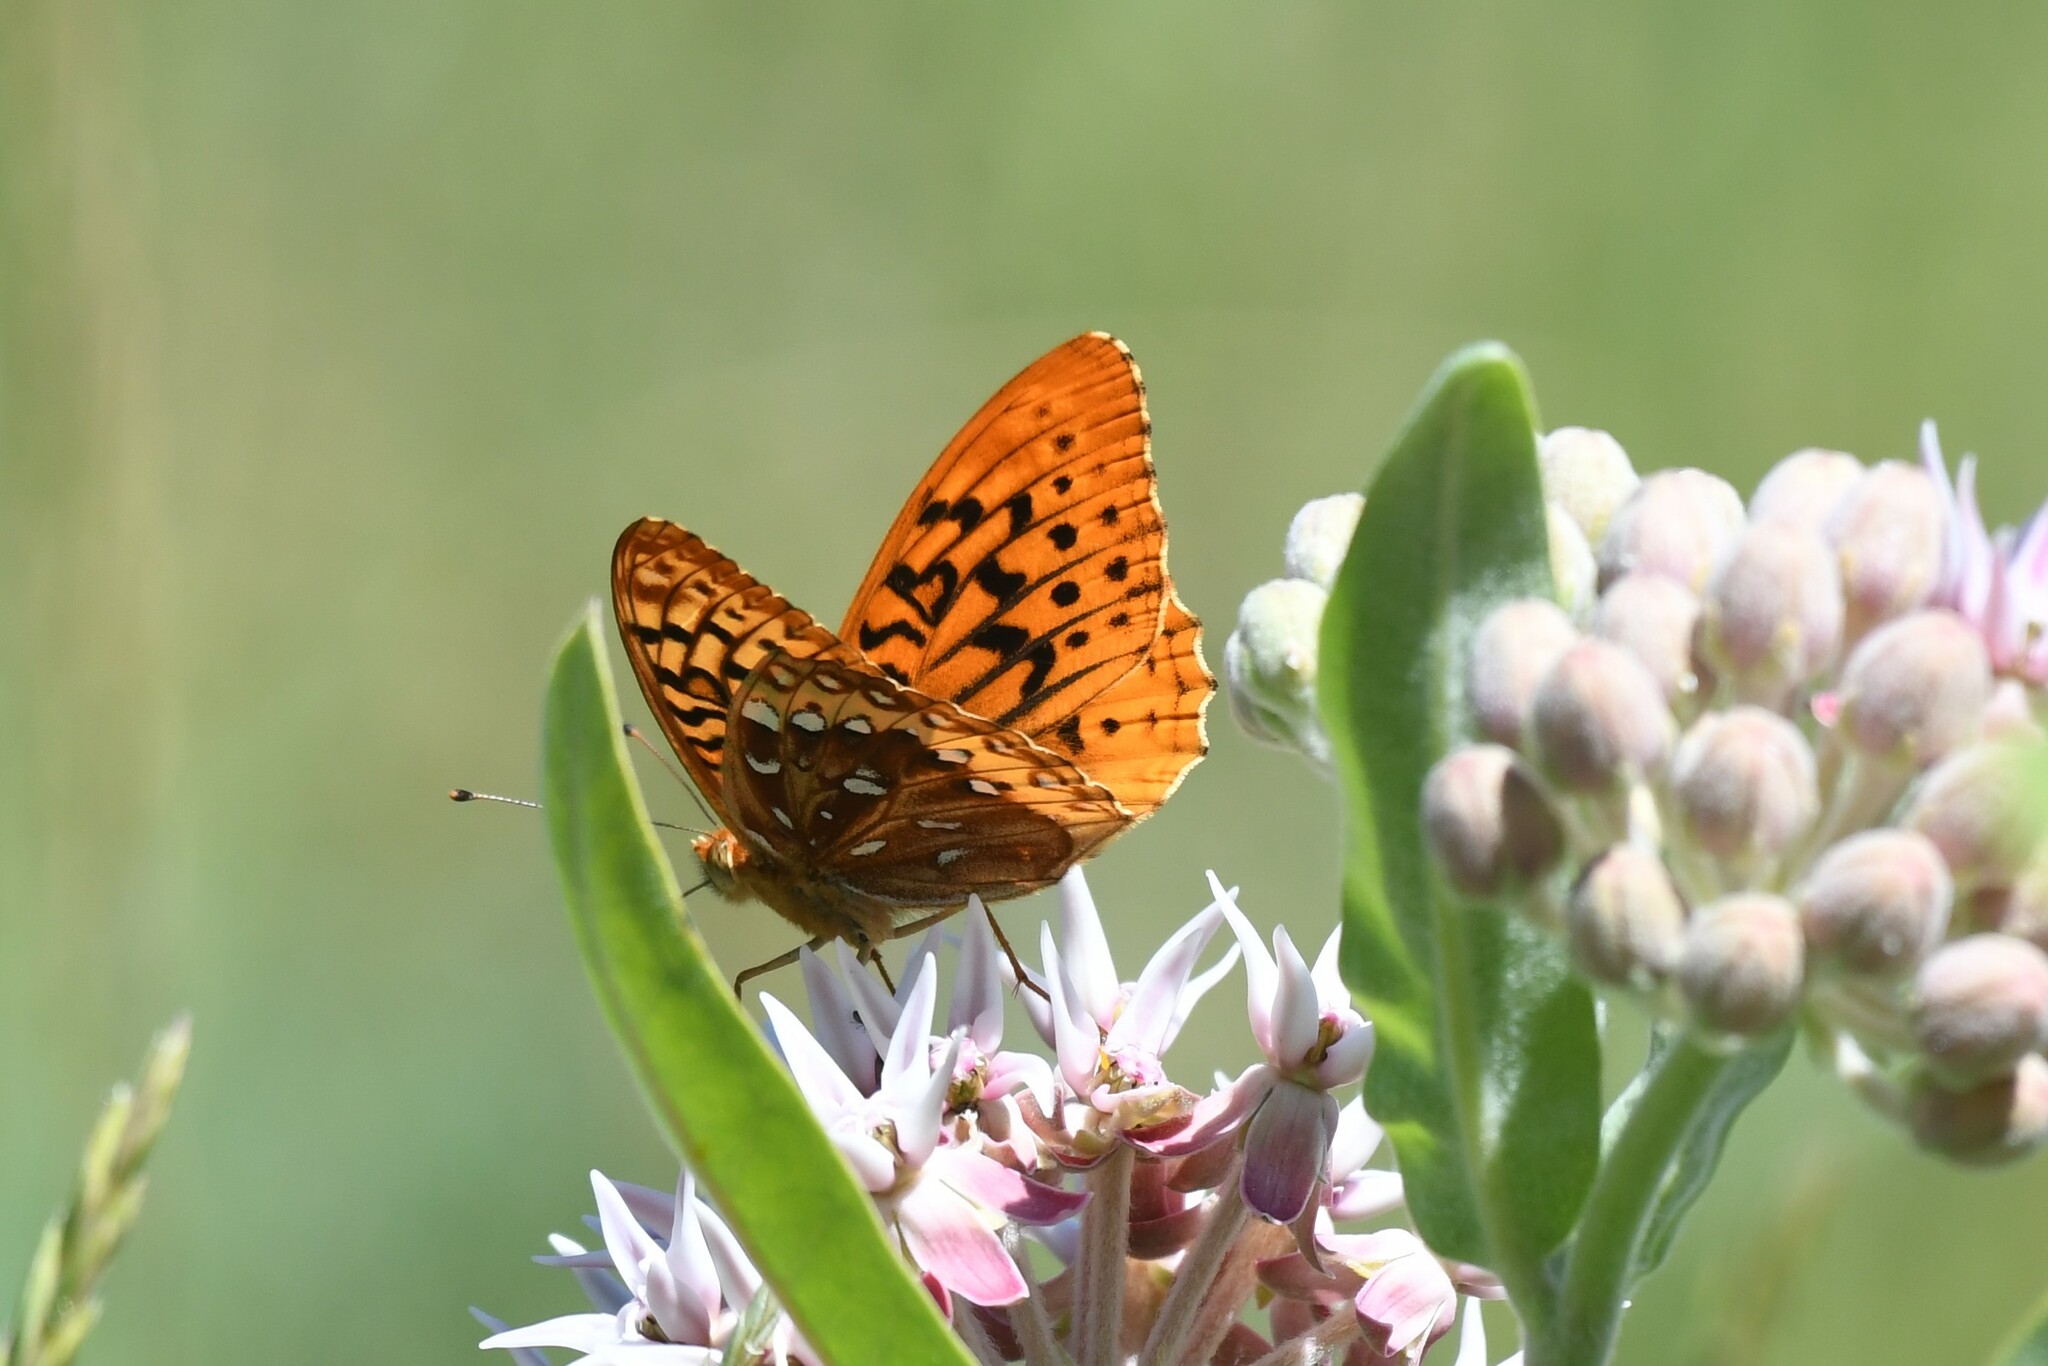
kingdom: Animalia
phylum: Arthropoda
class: Insecta
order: Lepidoptera
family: Nymphalidae
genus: Speyeria
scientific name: Speyeria cybele
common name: Great spangled fritillary
